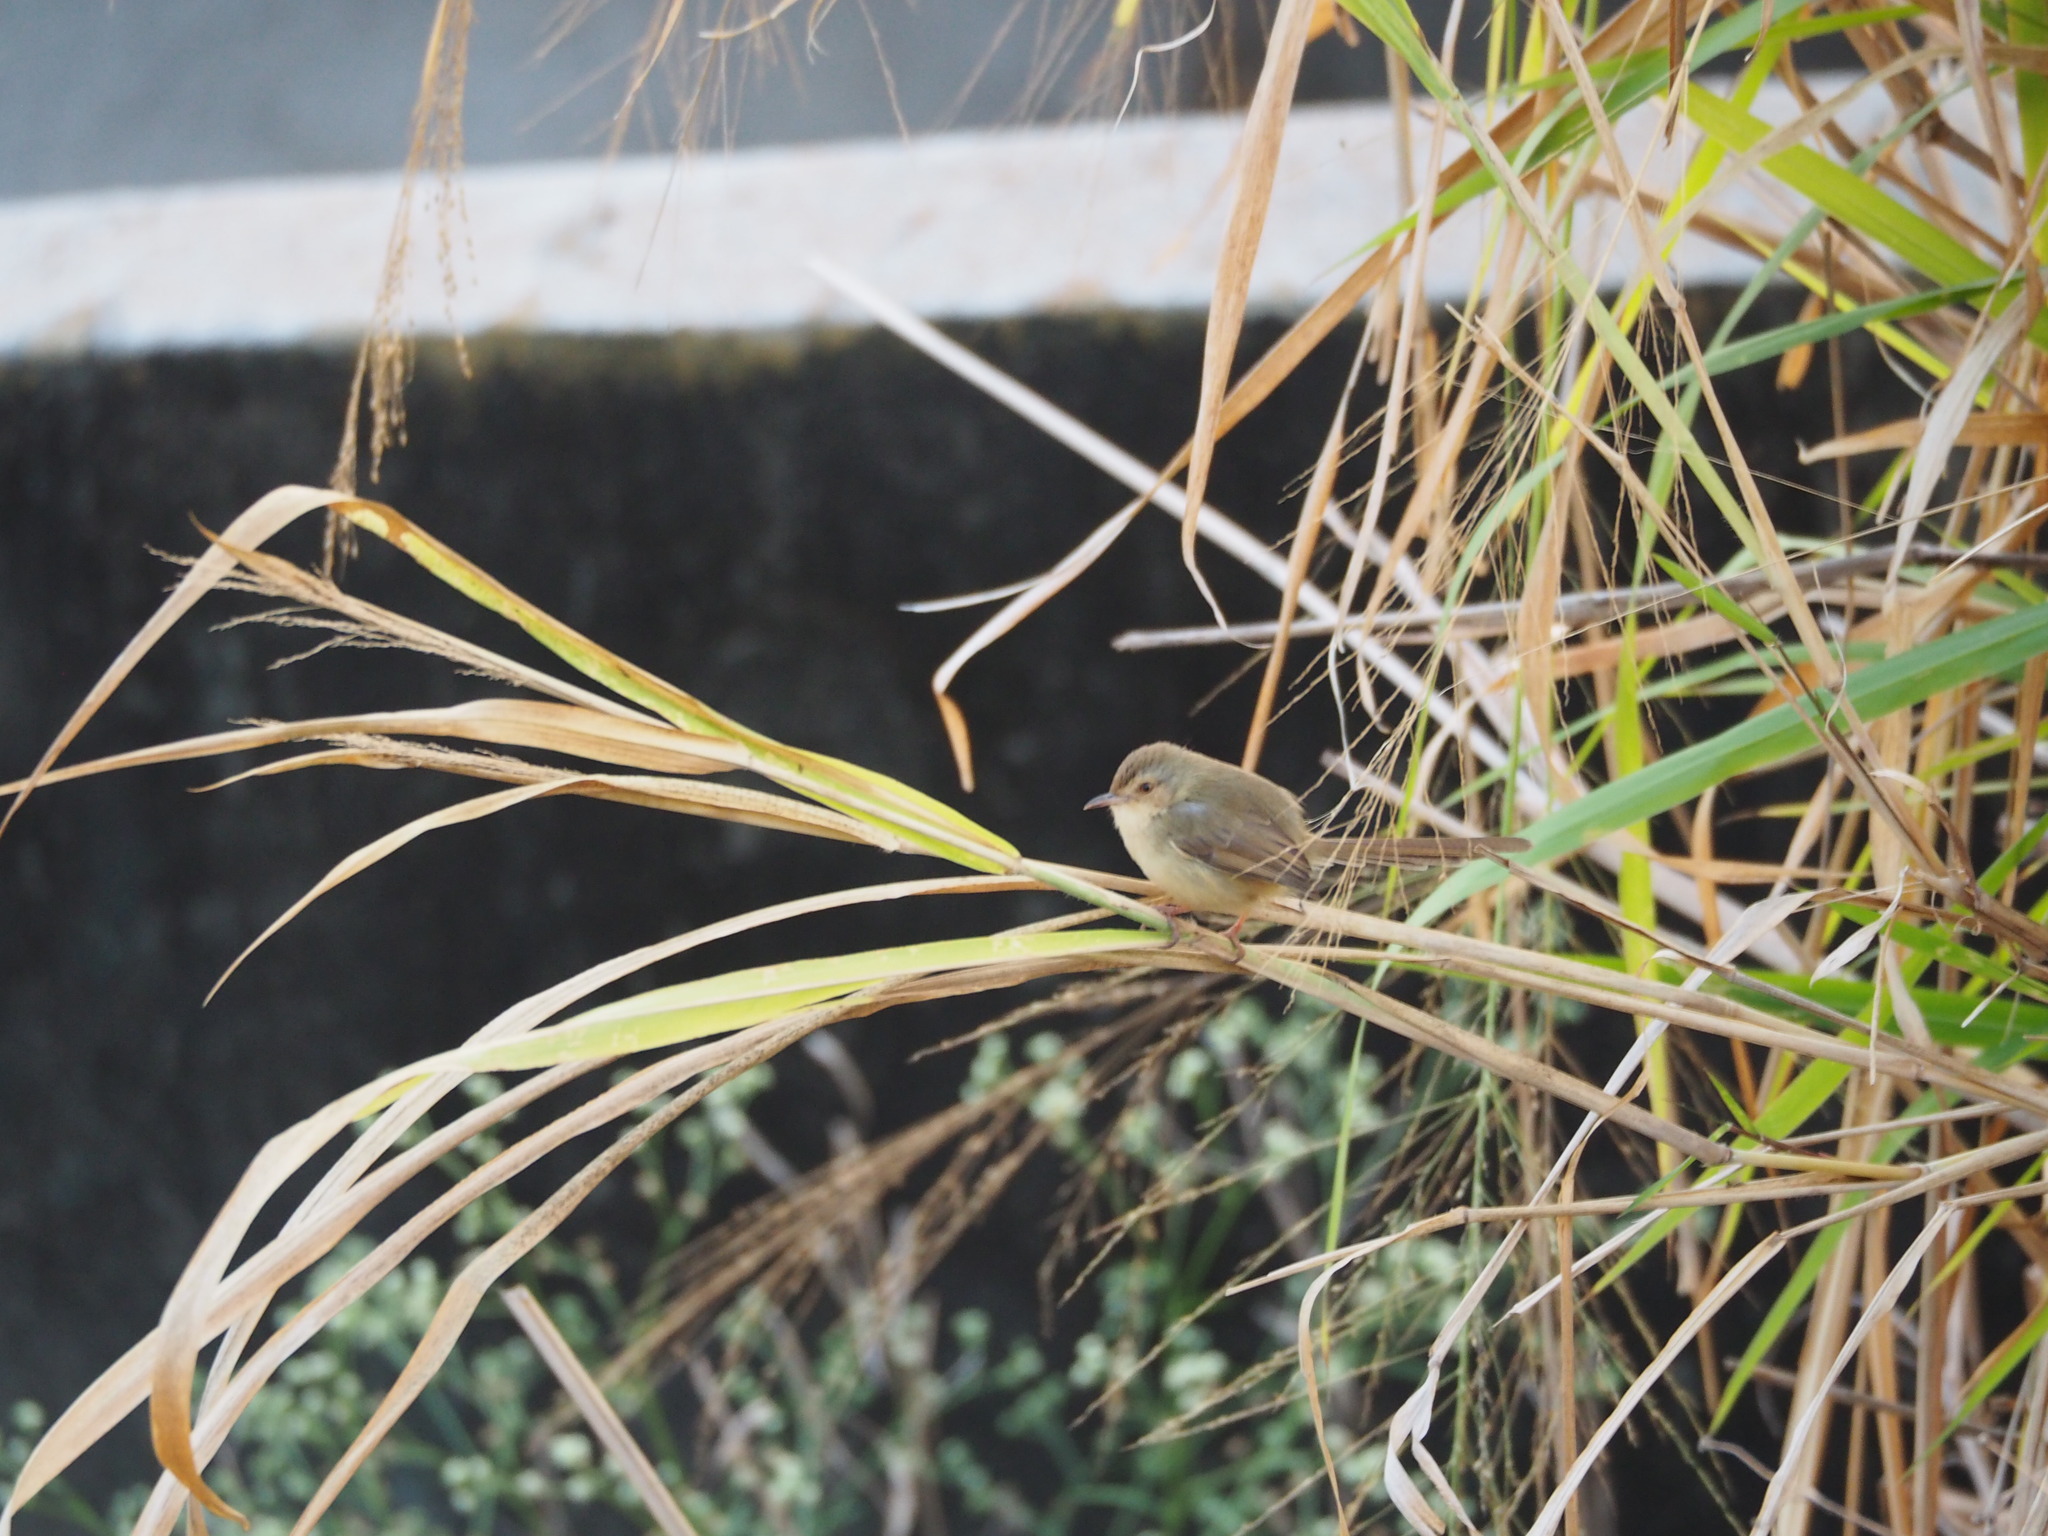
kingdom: Animalia
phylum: Chordata
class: Aves
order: Passeriformes
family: Cisticolidae
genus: Prinia
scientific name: Prinia inornata
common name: Plain prinia
